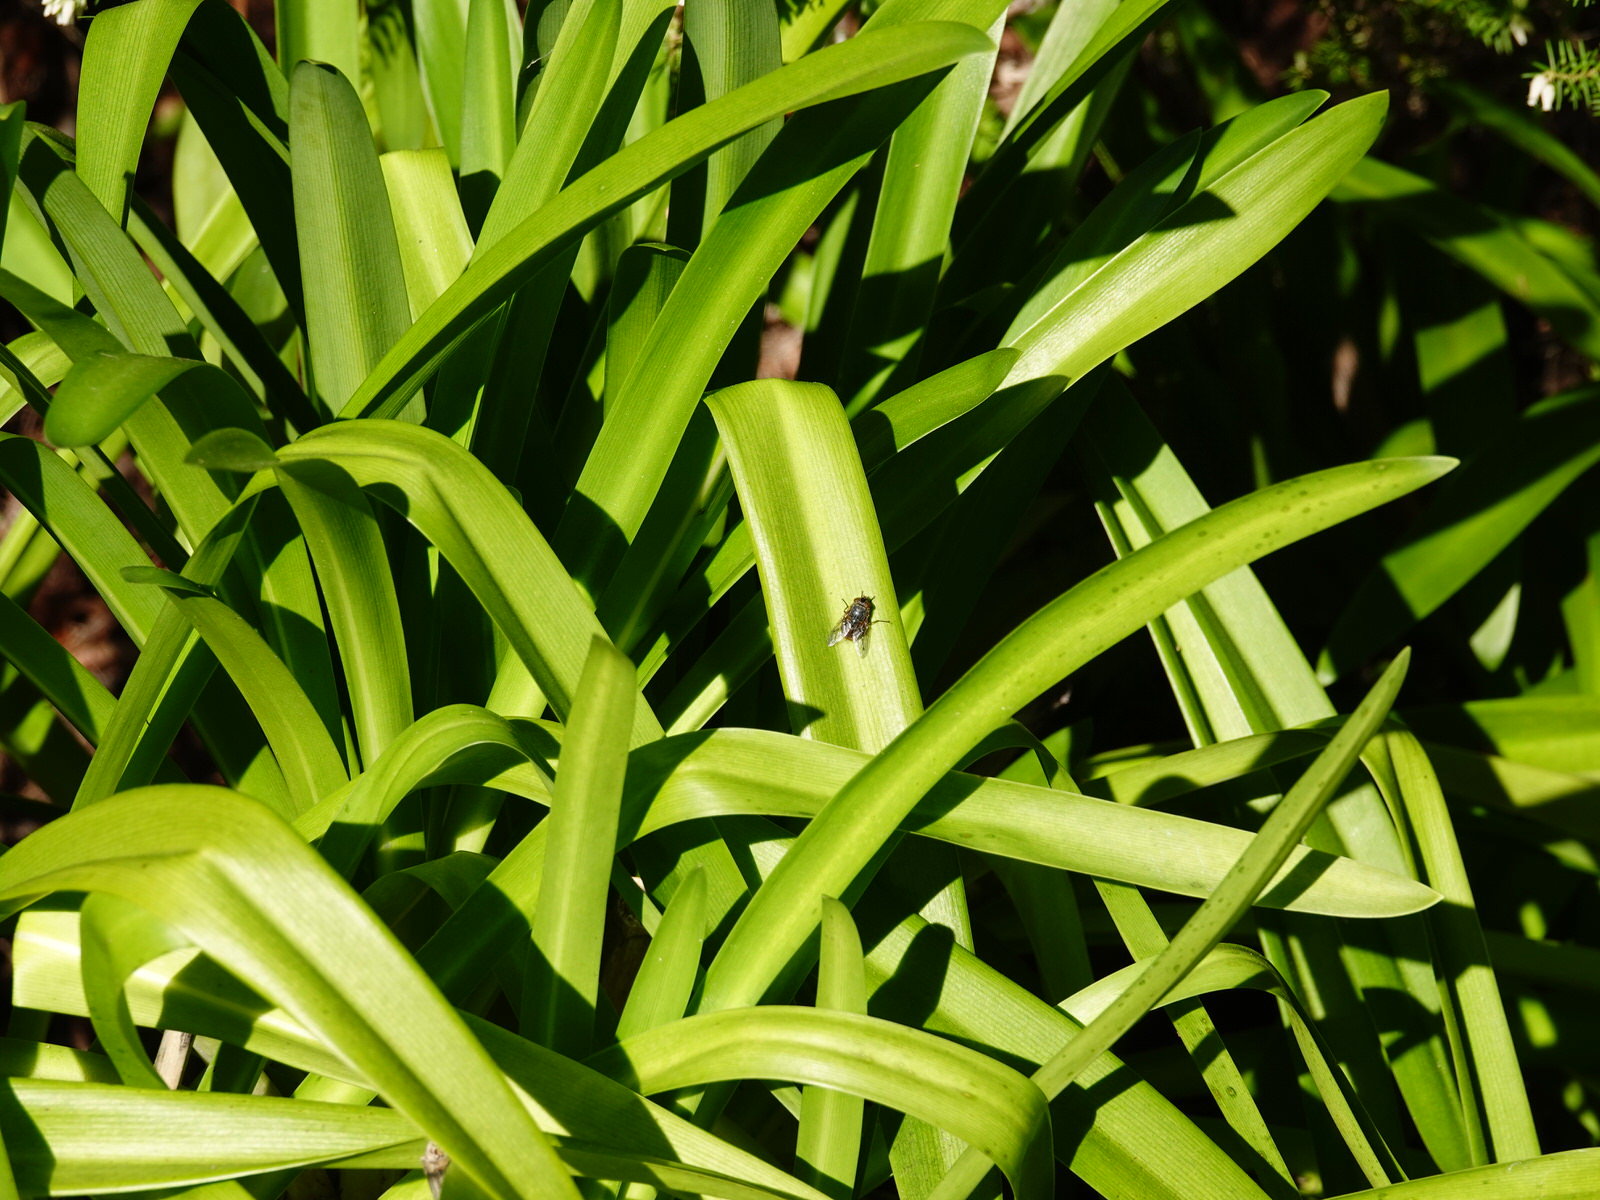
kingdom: Animalia
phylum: Arthropoda
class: Insecta
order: Diptera
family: Calliphoridae
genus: Calliphora
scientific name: Calliphora stygia
